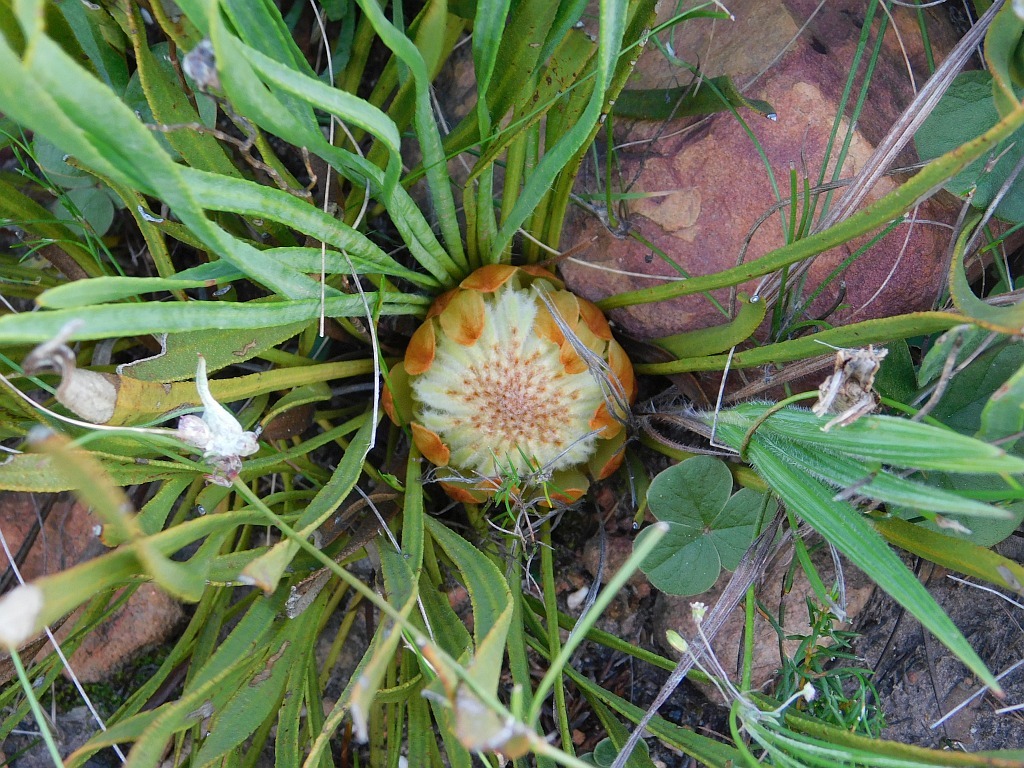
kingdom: Plantae
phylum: Tracheophyta
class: Magnoliopsida
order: Proteales
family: Proteaceae
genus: Protea
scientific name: Protea scabra
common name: Sandpaper-leaf sugarbush
